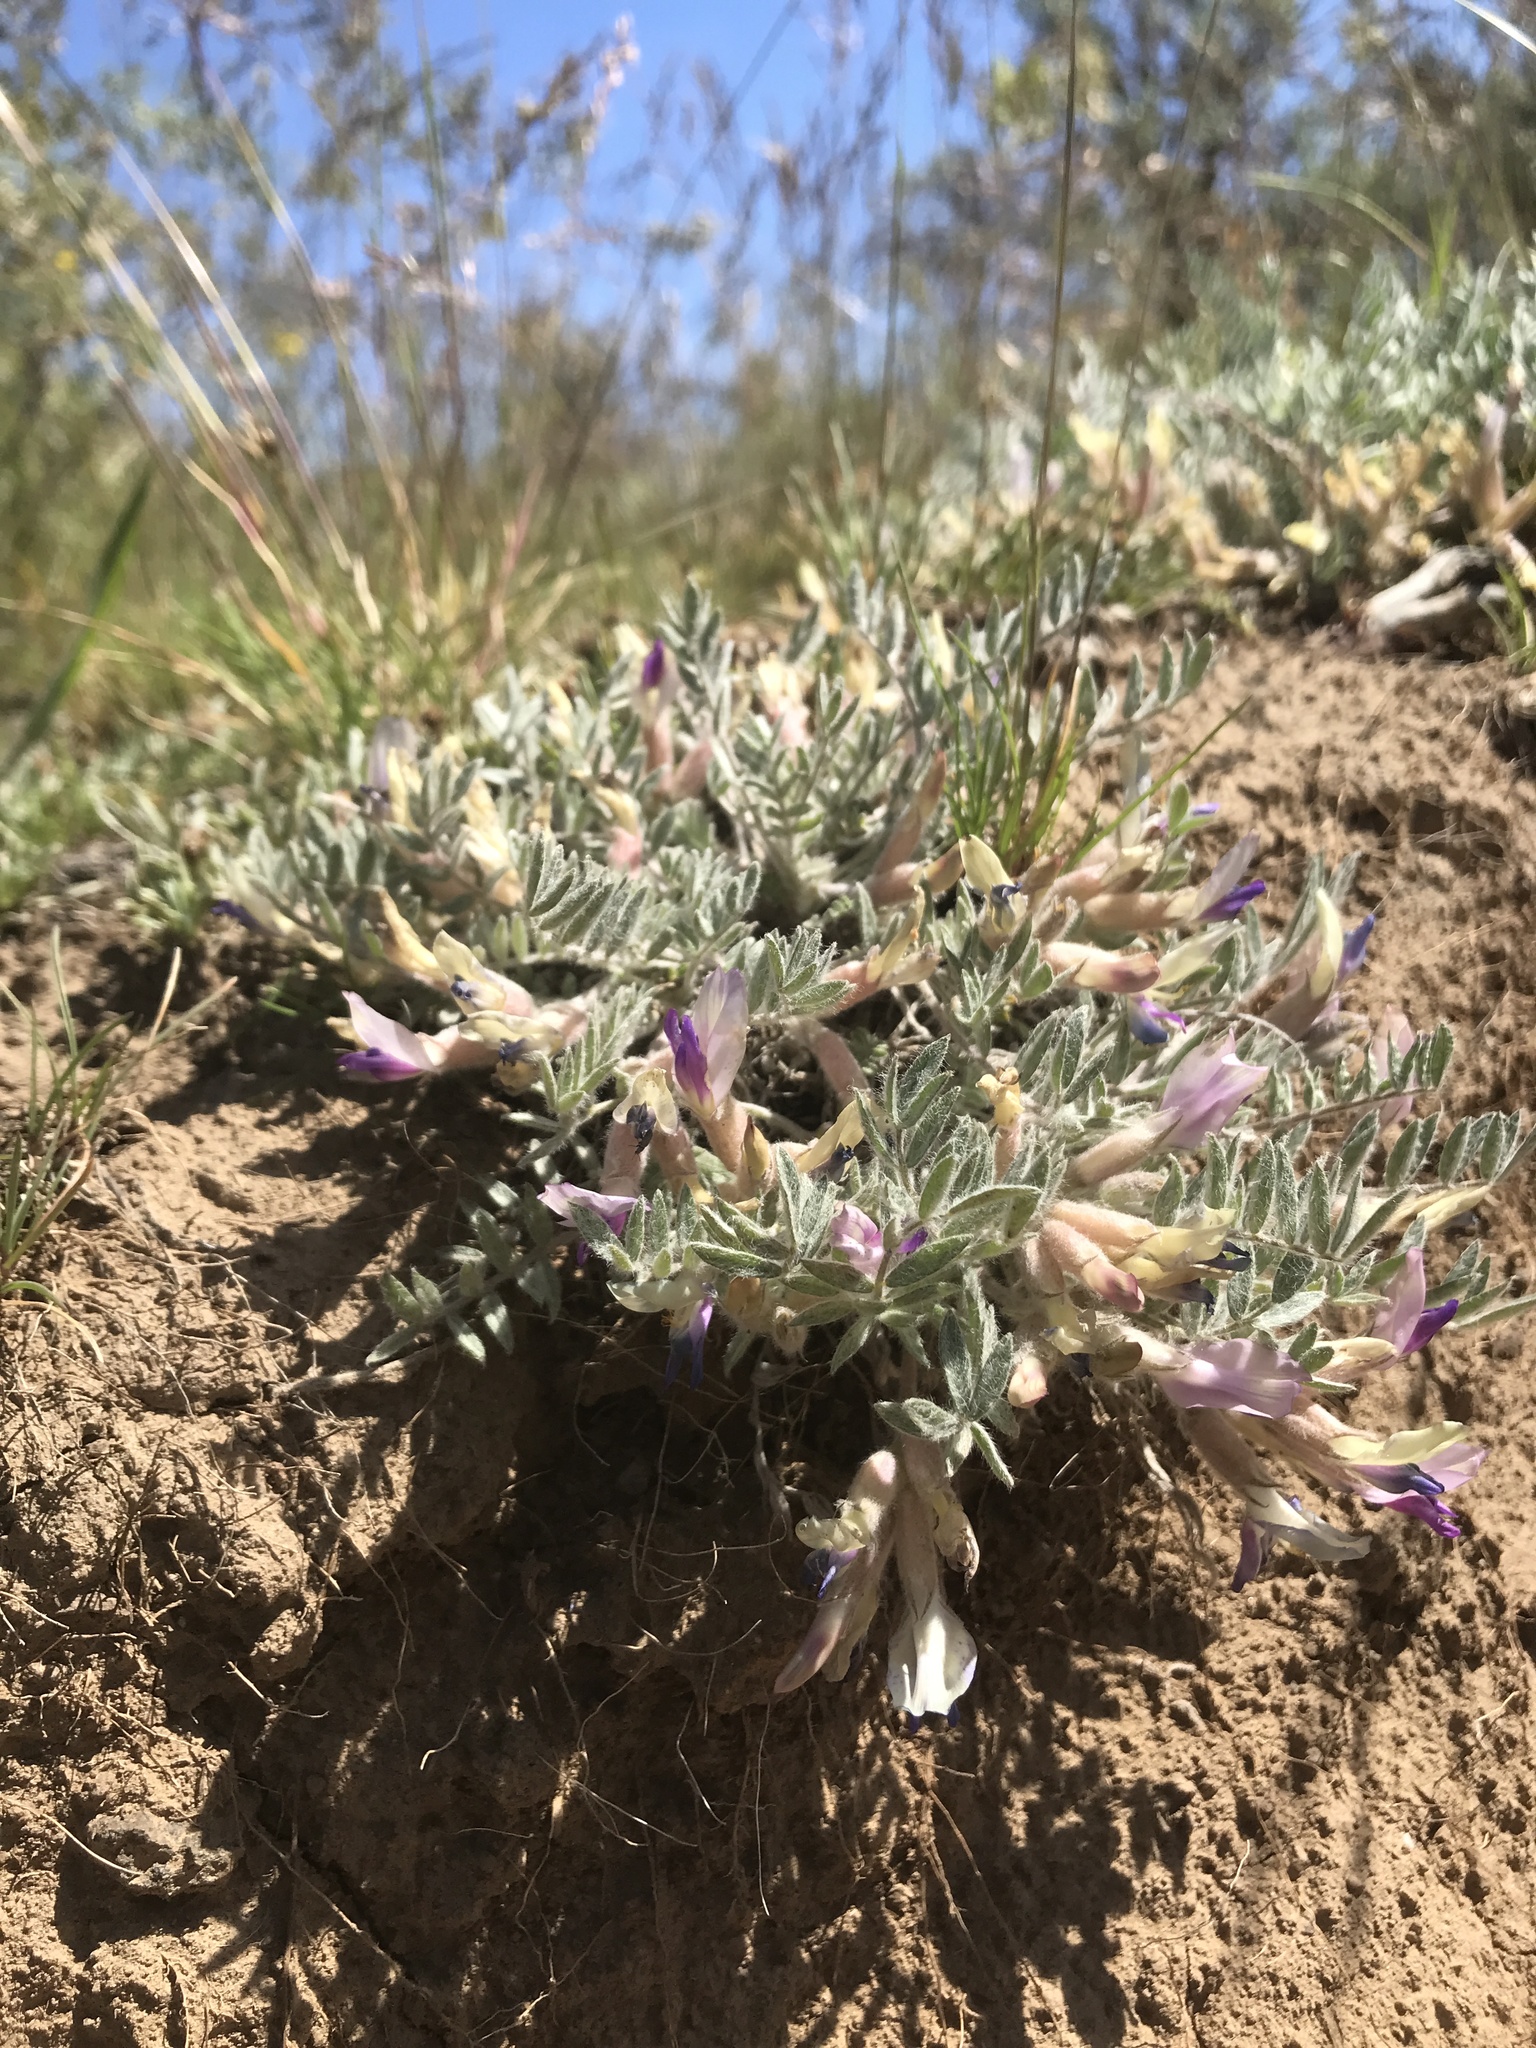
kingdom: Plantae
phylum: Tracheophyta
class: Magnoliopsida
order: Fabales
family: Fabaceae
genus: Astragalus
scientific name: Astragalus purshii
